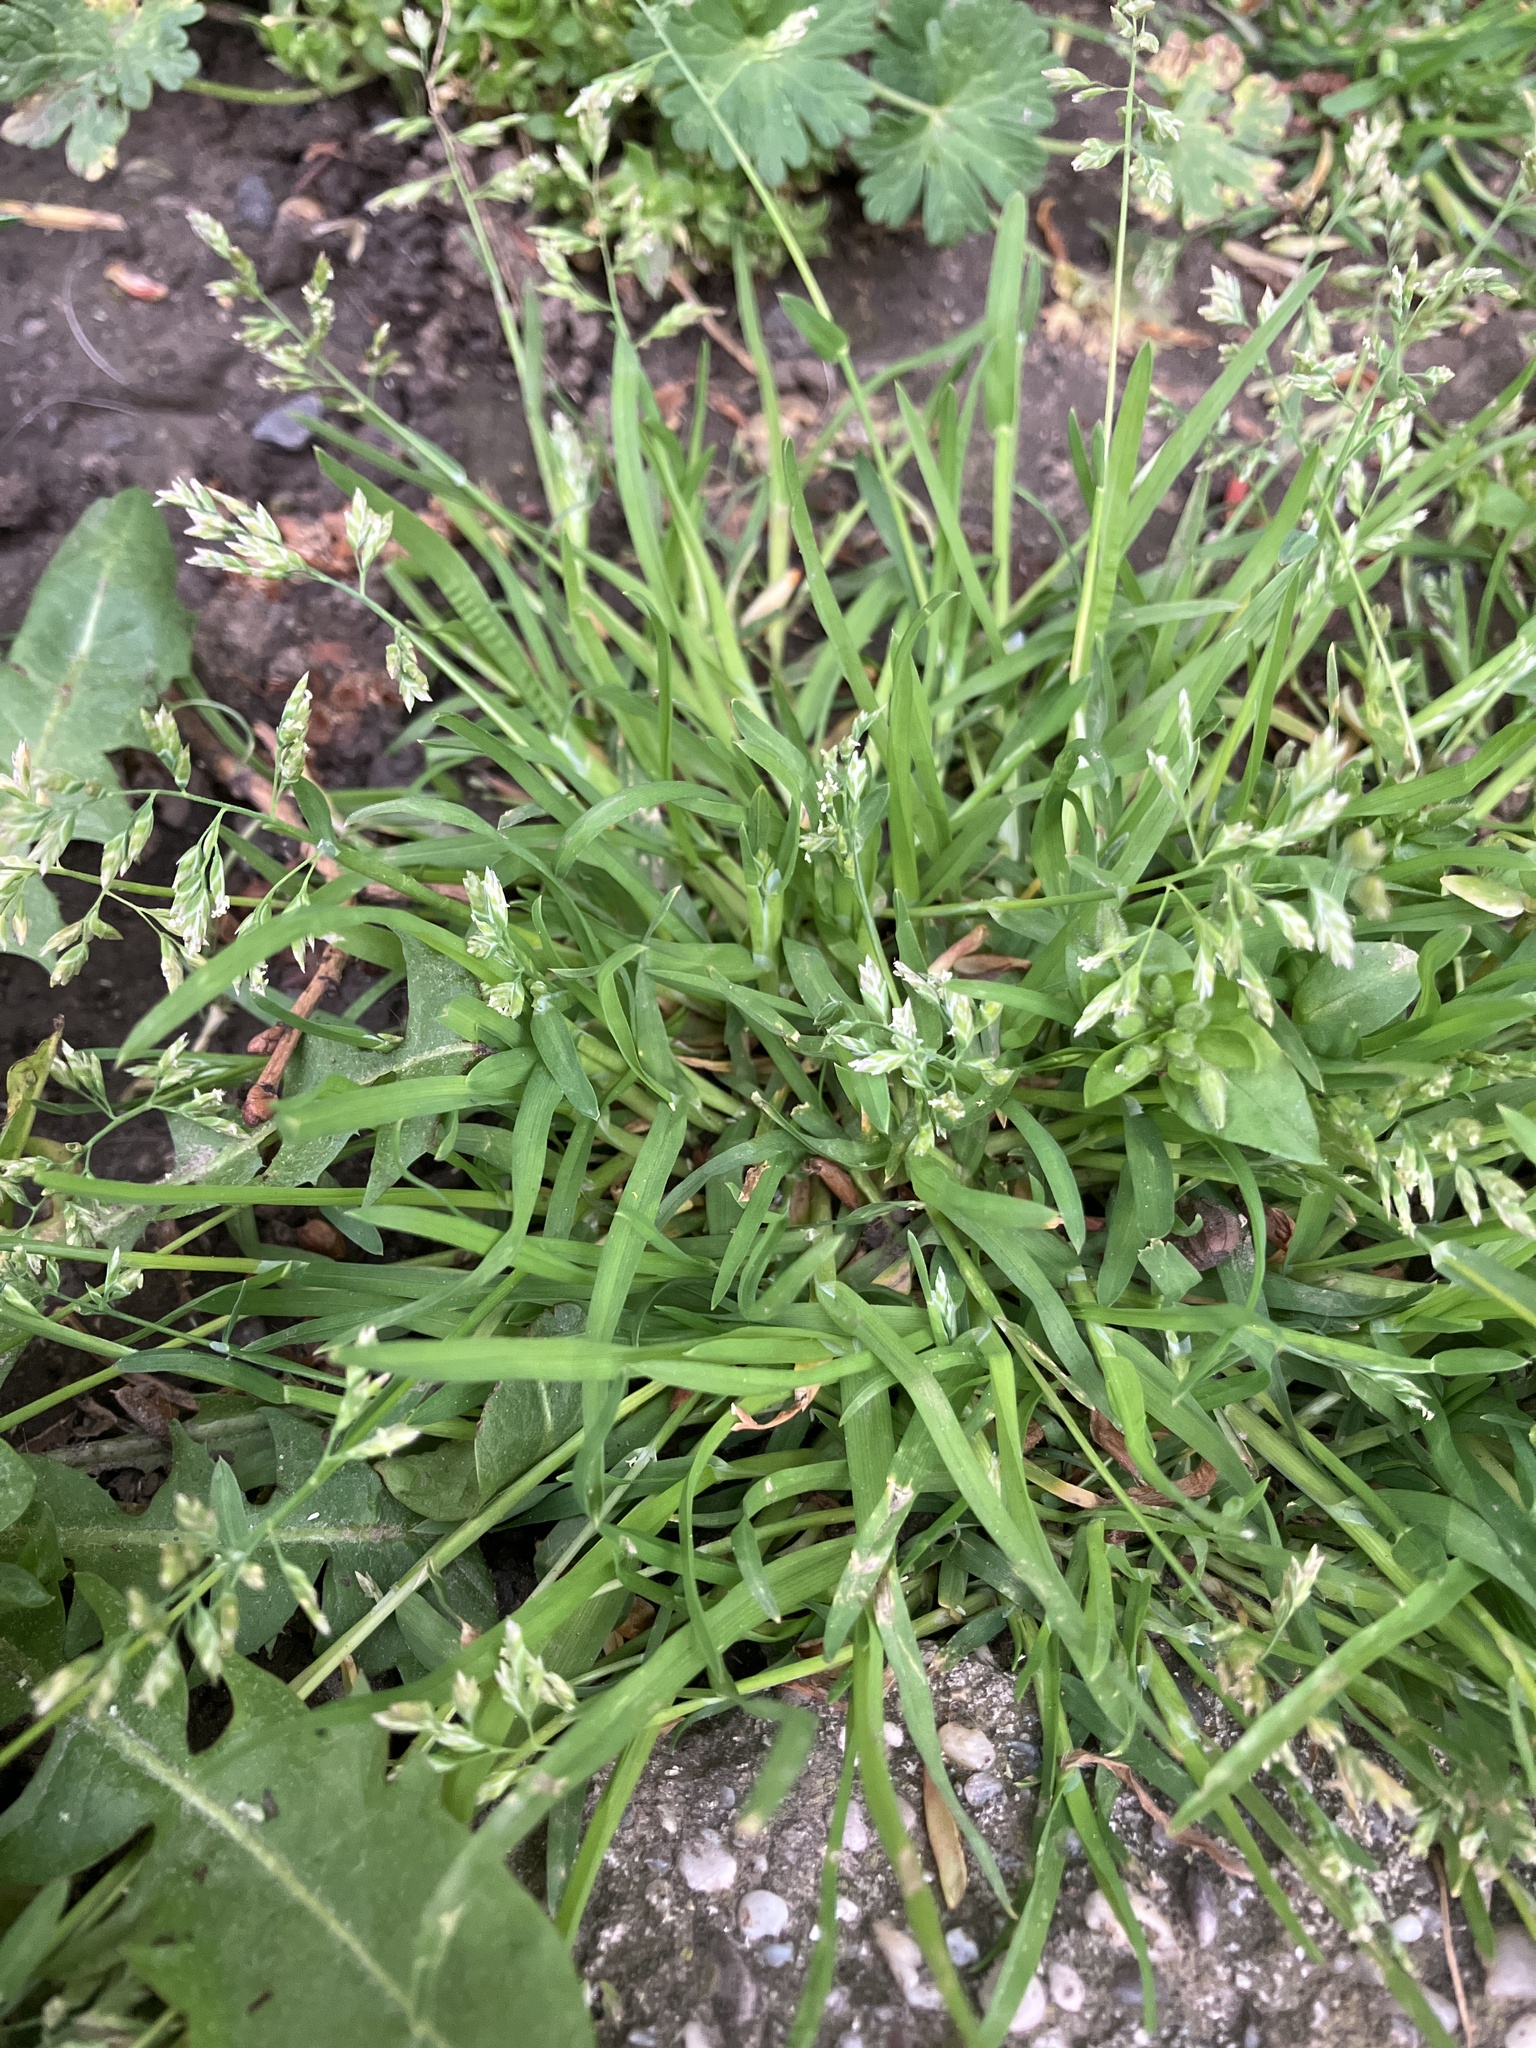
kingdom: Plantae
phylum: Tracheophyta
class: Liliopsida
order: Poales
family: Poaceae
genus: Poa
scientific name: Poa annua
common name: Annual bluegrass
